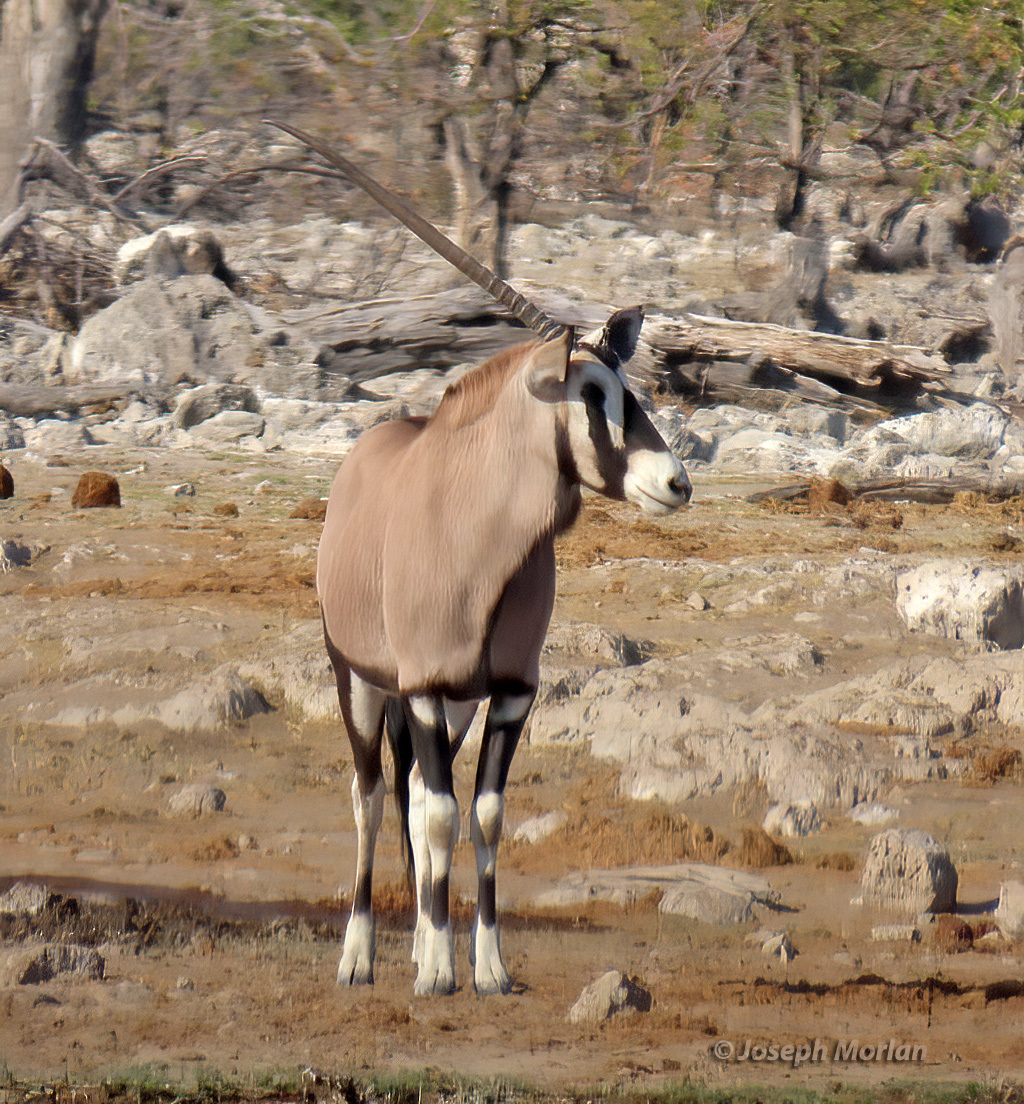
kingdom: Animalia
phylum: Chordata
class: Mammalia
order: Artiodactyla
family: Bovidae
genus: Oryx
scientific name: Oryx gazella
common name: Gemsbok
